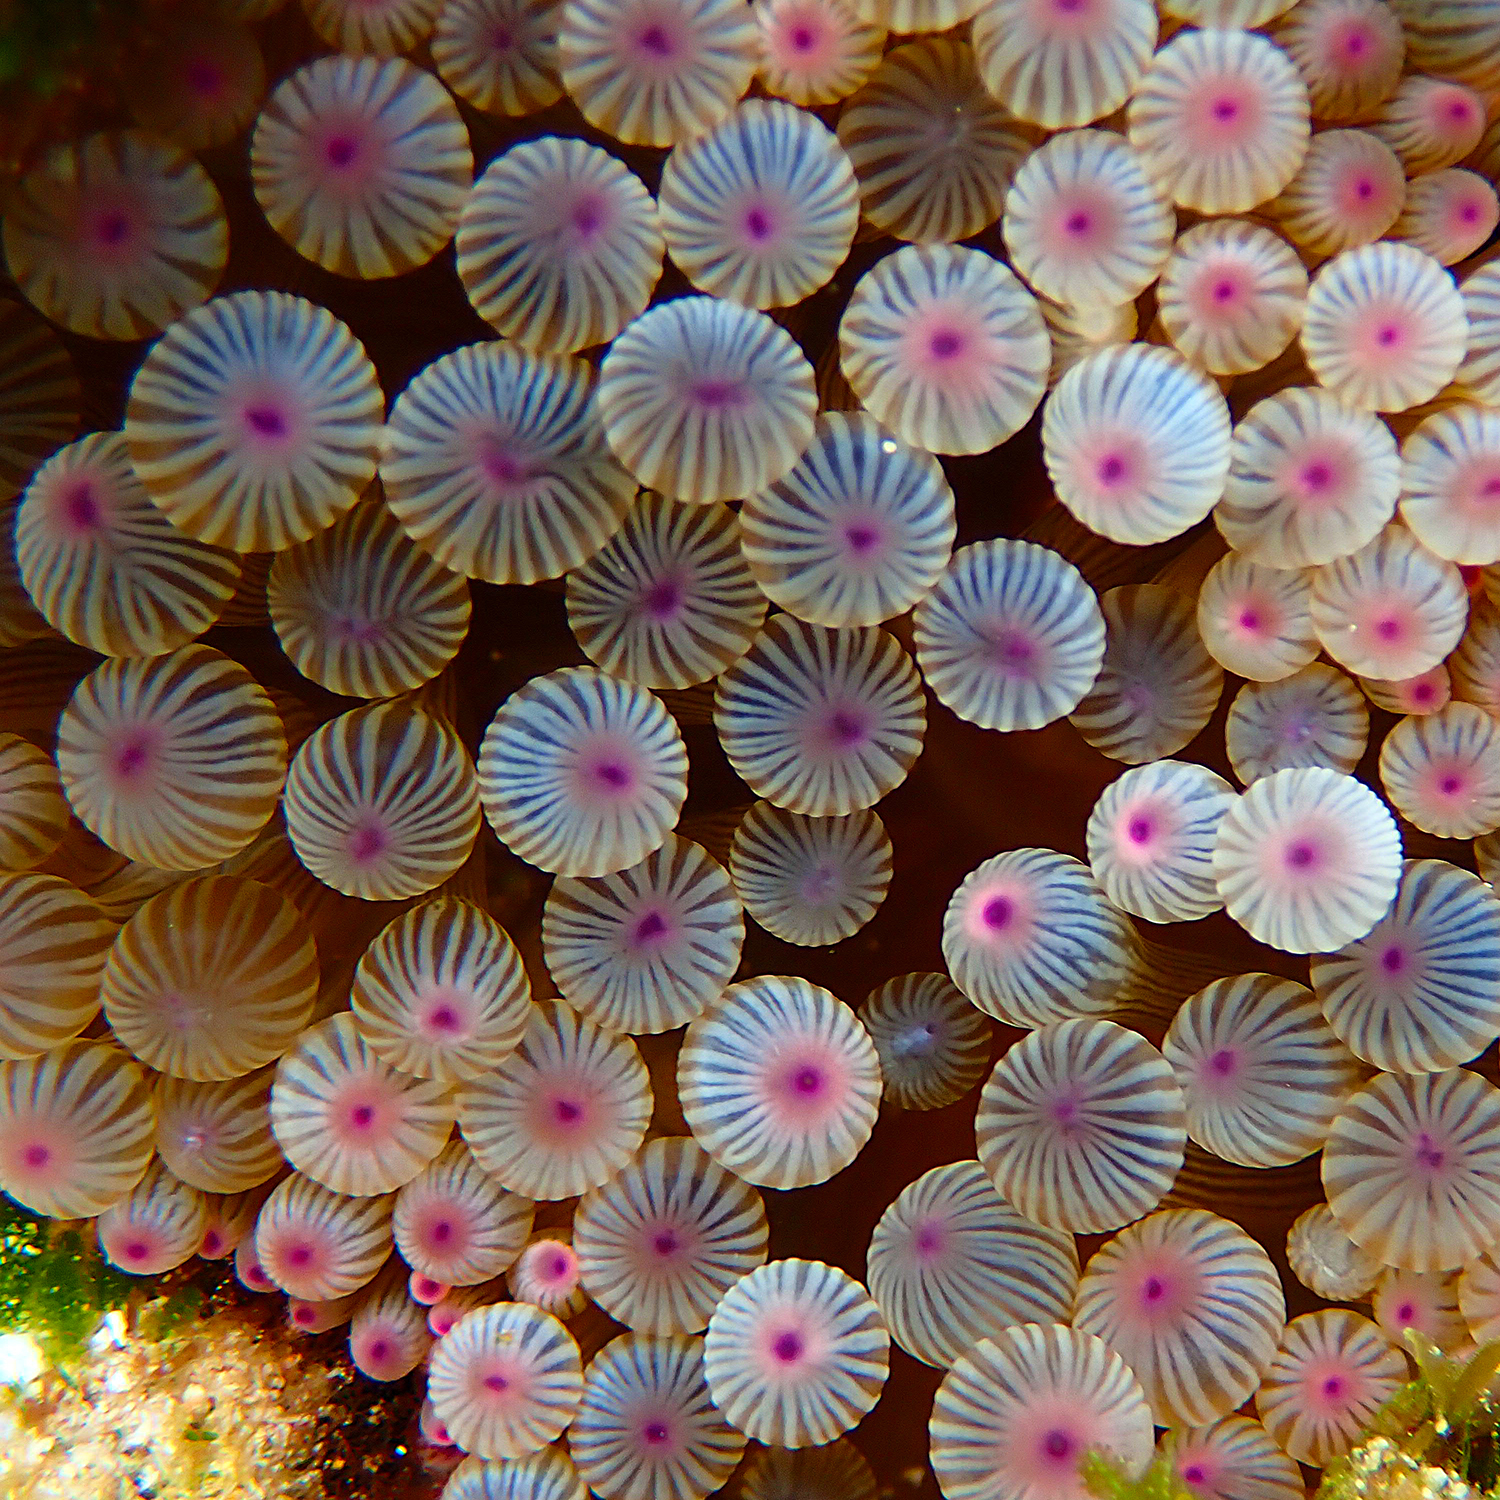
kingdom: Animalia
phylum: Cnidaria
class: Anthozoa
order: Actiniaria
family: Actiniidae
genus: Entacmaea
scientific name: Entacmaea quadricolor
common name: Bulb tentacle sea anemone
